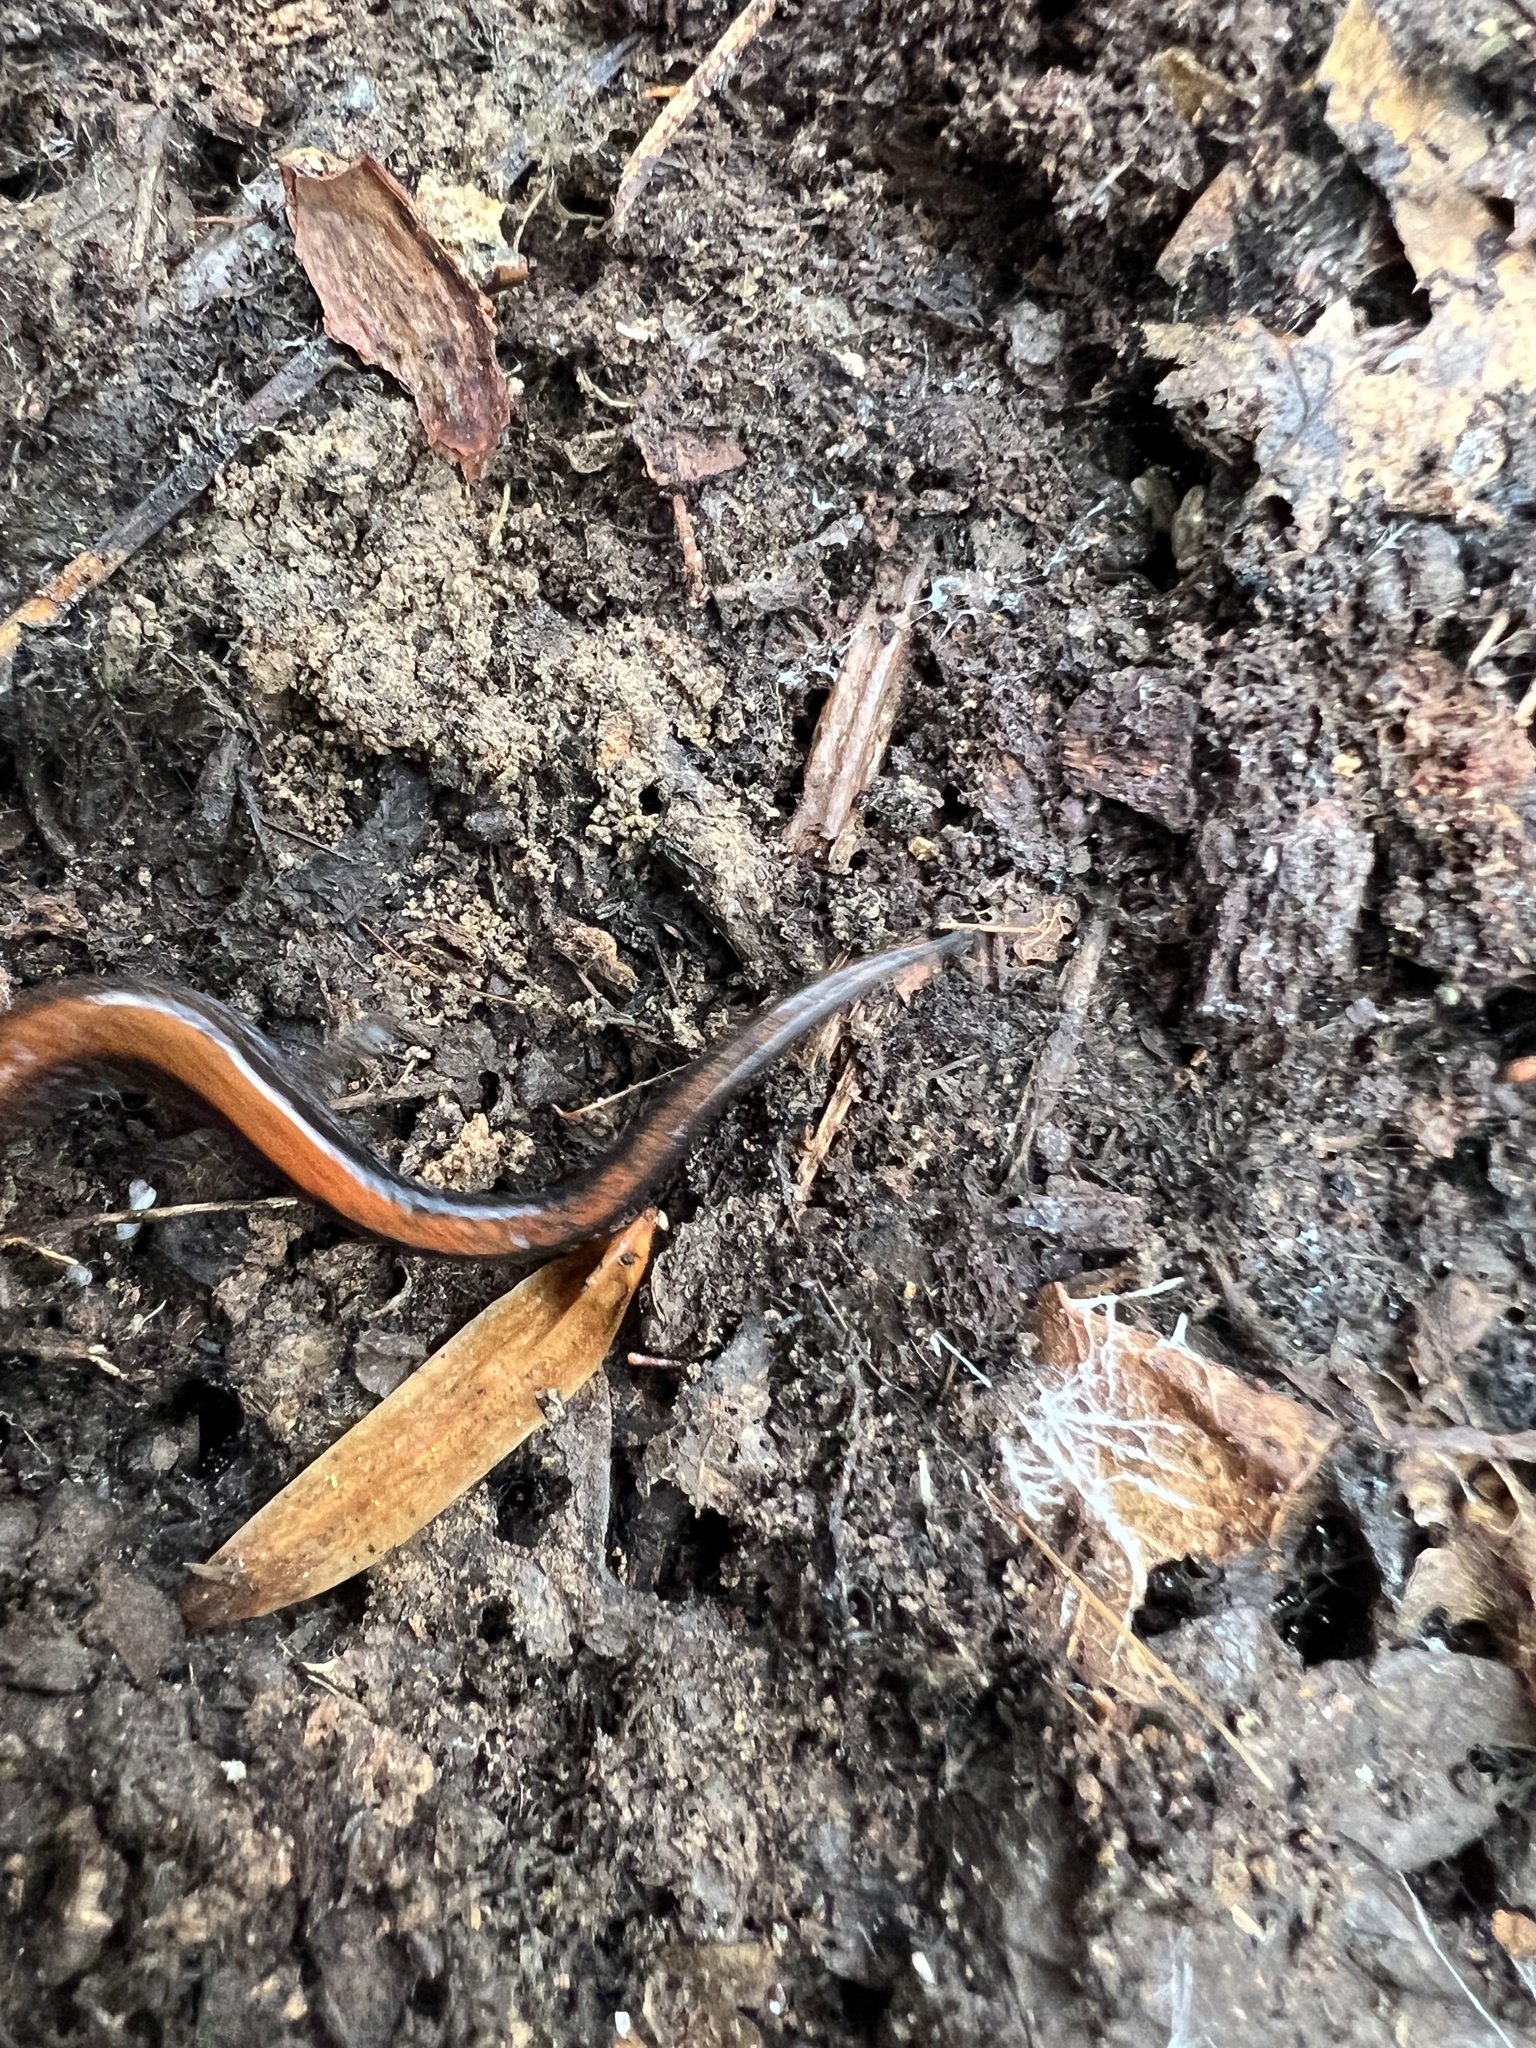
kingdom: Animalia
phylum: Chordata
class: Amphibia
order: Caudata
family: Plethodontidae
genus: Plethodon
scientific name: Plethodon cinereus
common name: Redback salamander
